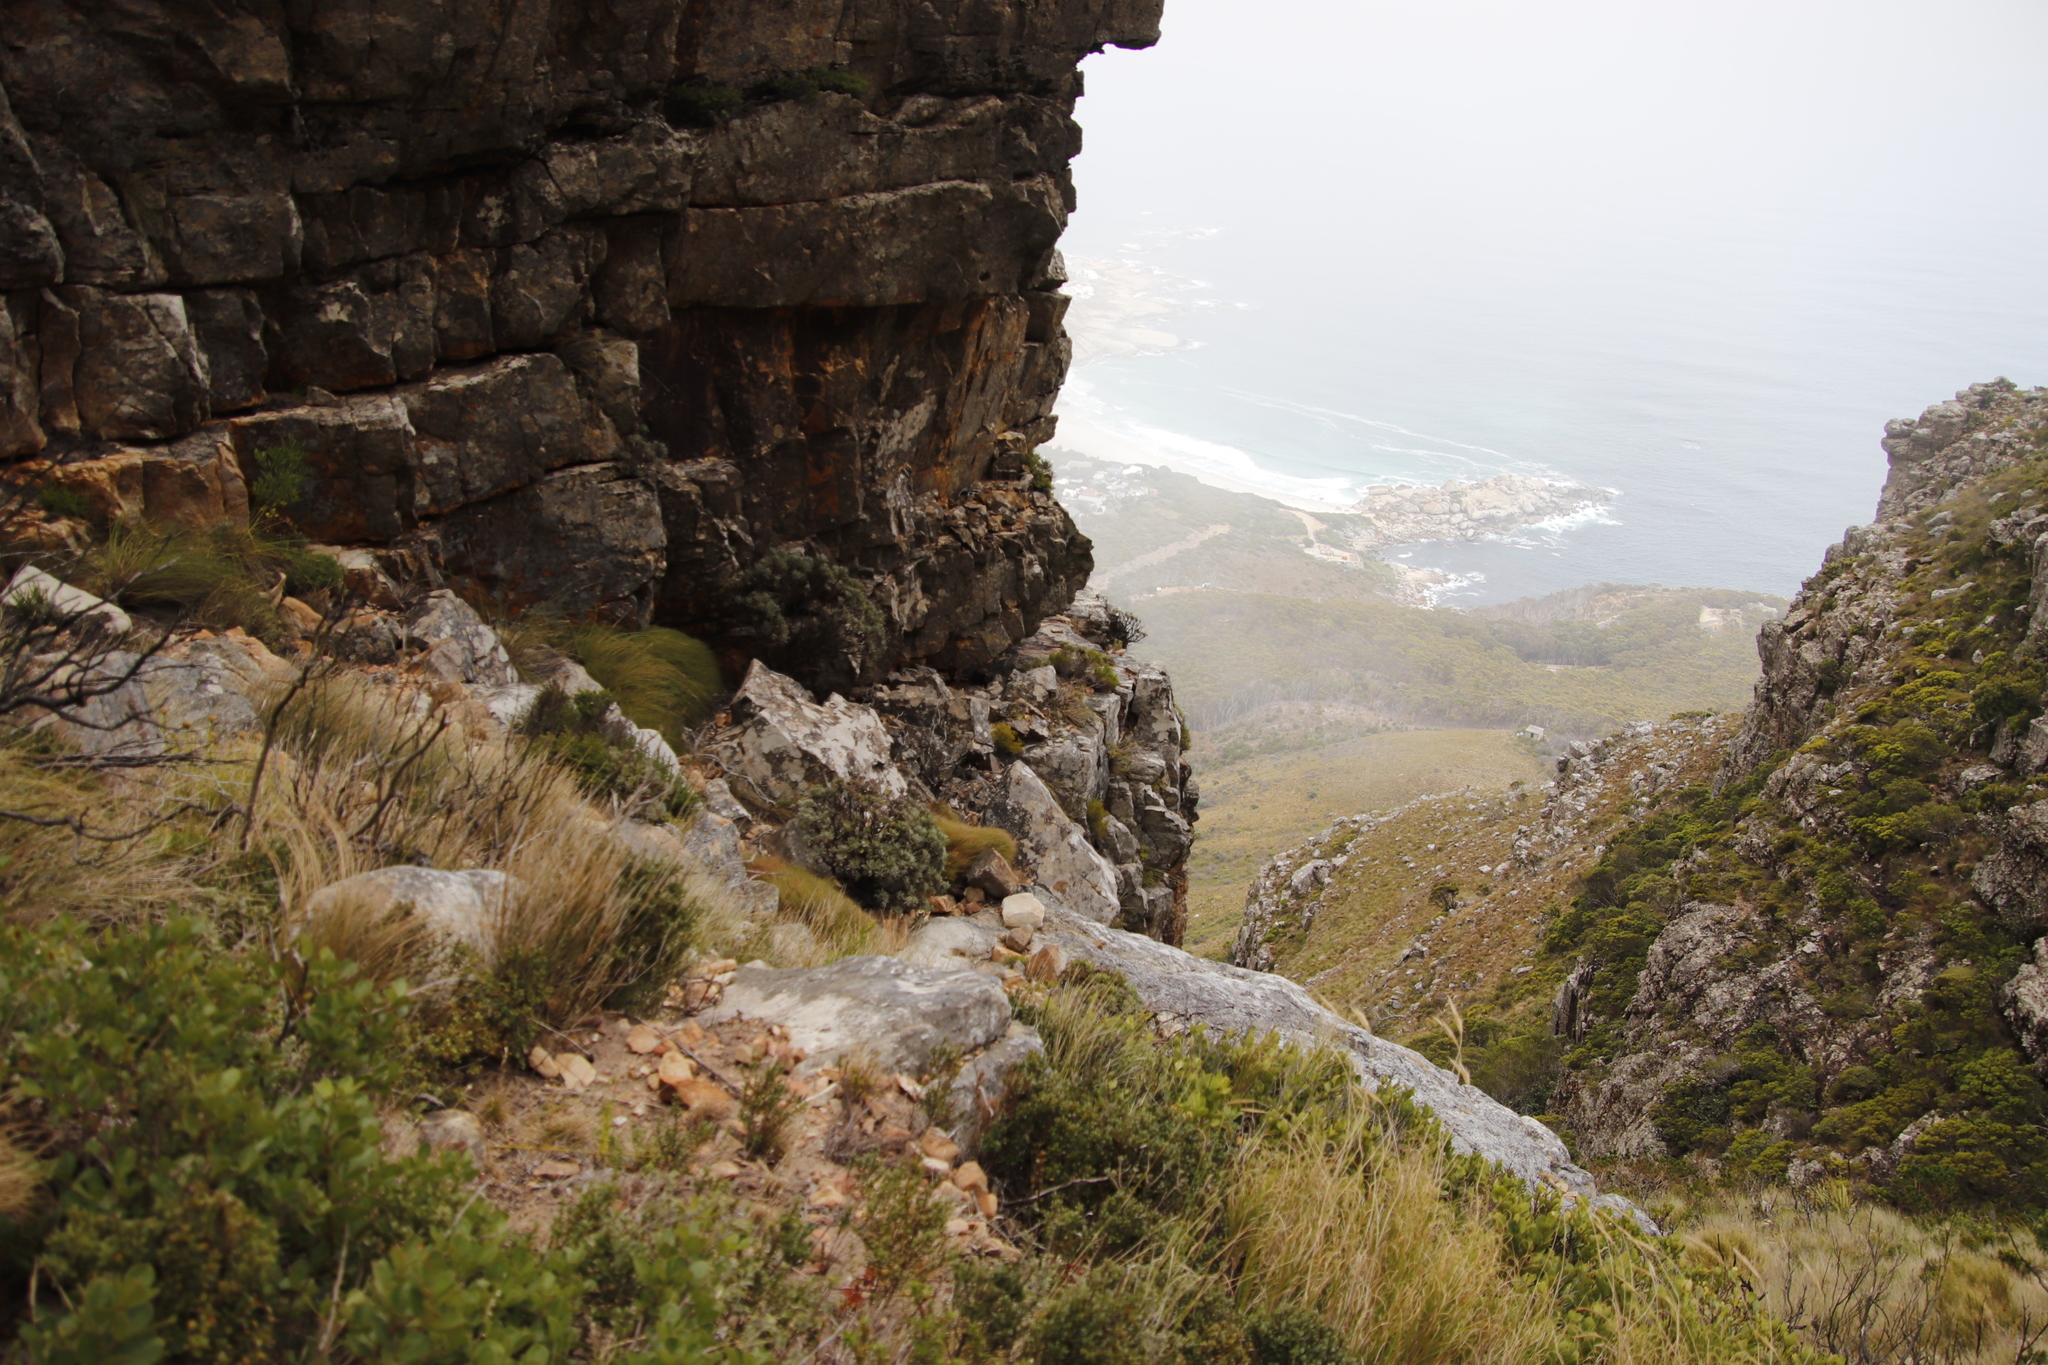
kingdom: Plantae
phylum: Tracheophyta
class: Magnoliopsida
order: Asterales
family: Asteraceae
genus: Euryops
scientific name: Euryops pectinatus
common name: Gray-leaf euryops
